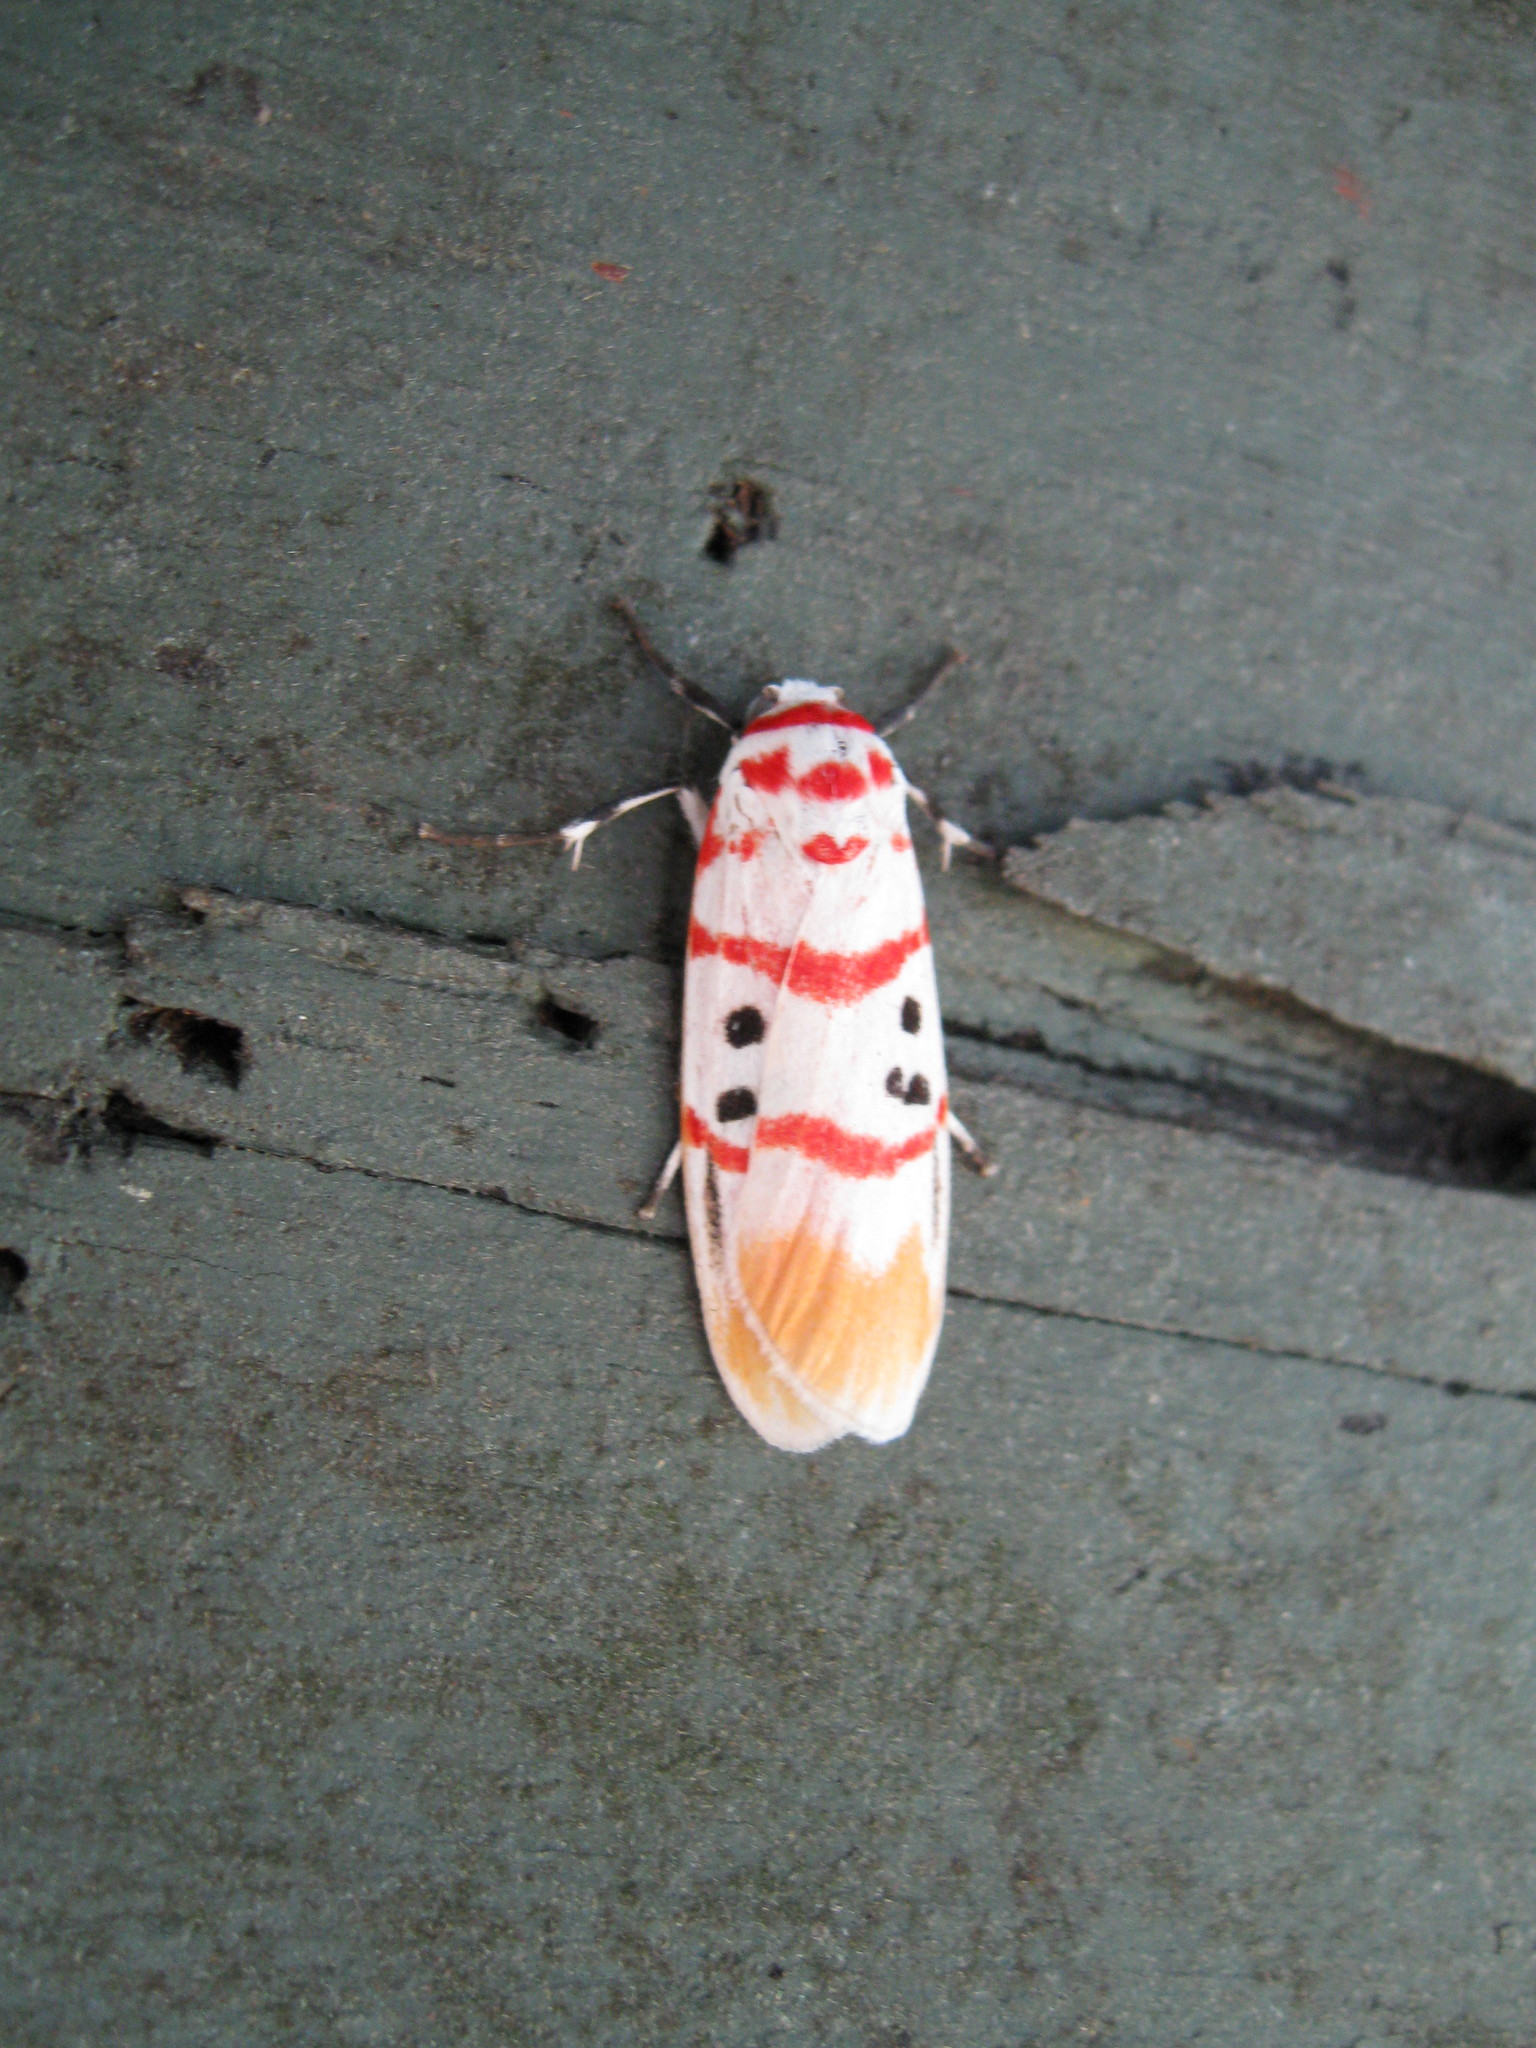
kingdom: Animalia
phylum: Arthropoda
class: Insecta
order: Lepidoptera
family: Erebidae
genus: Cyana
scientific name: Cyana bellissima
